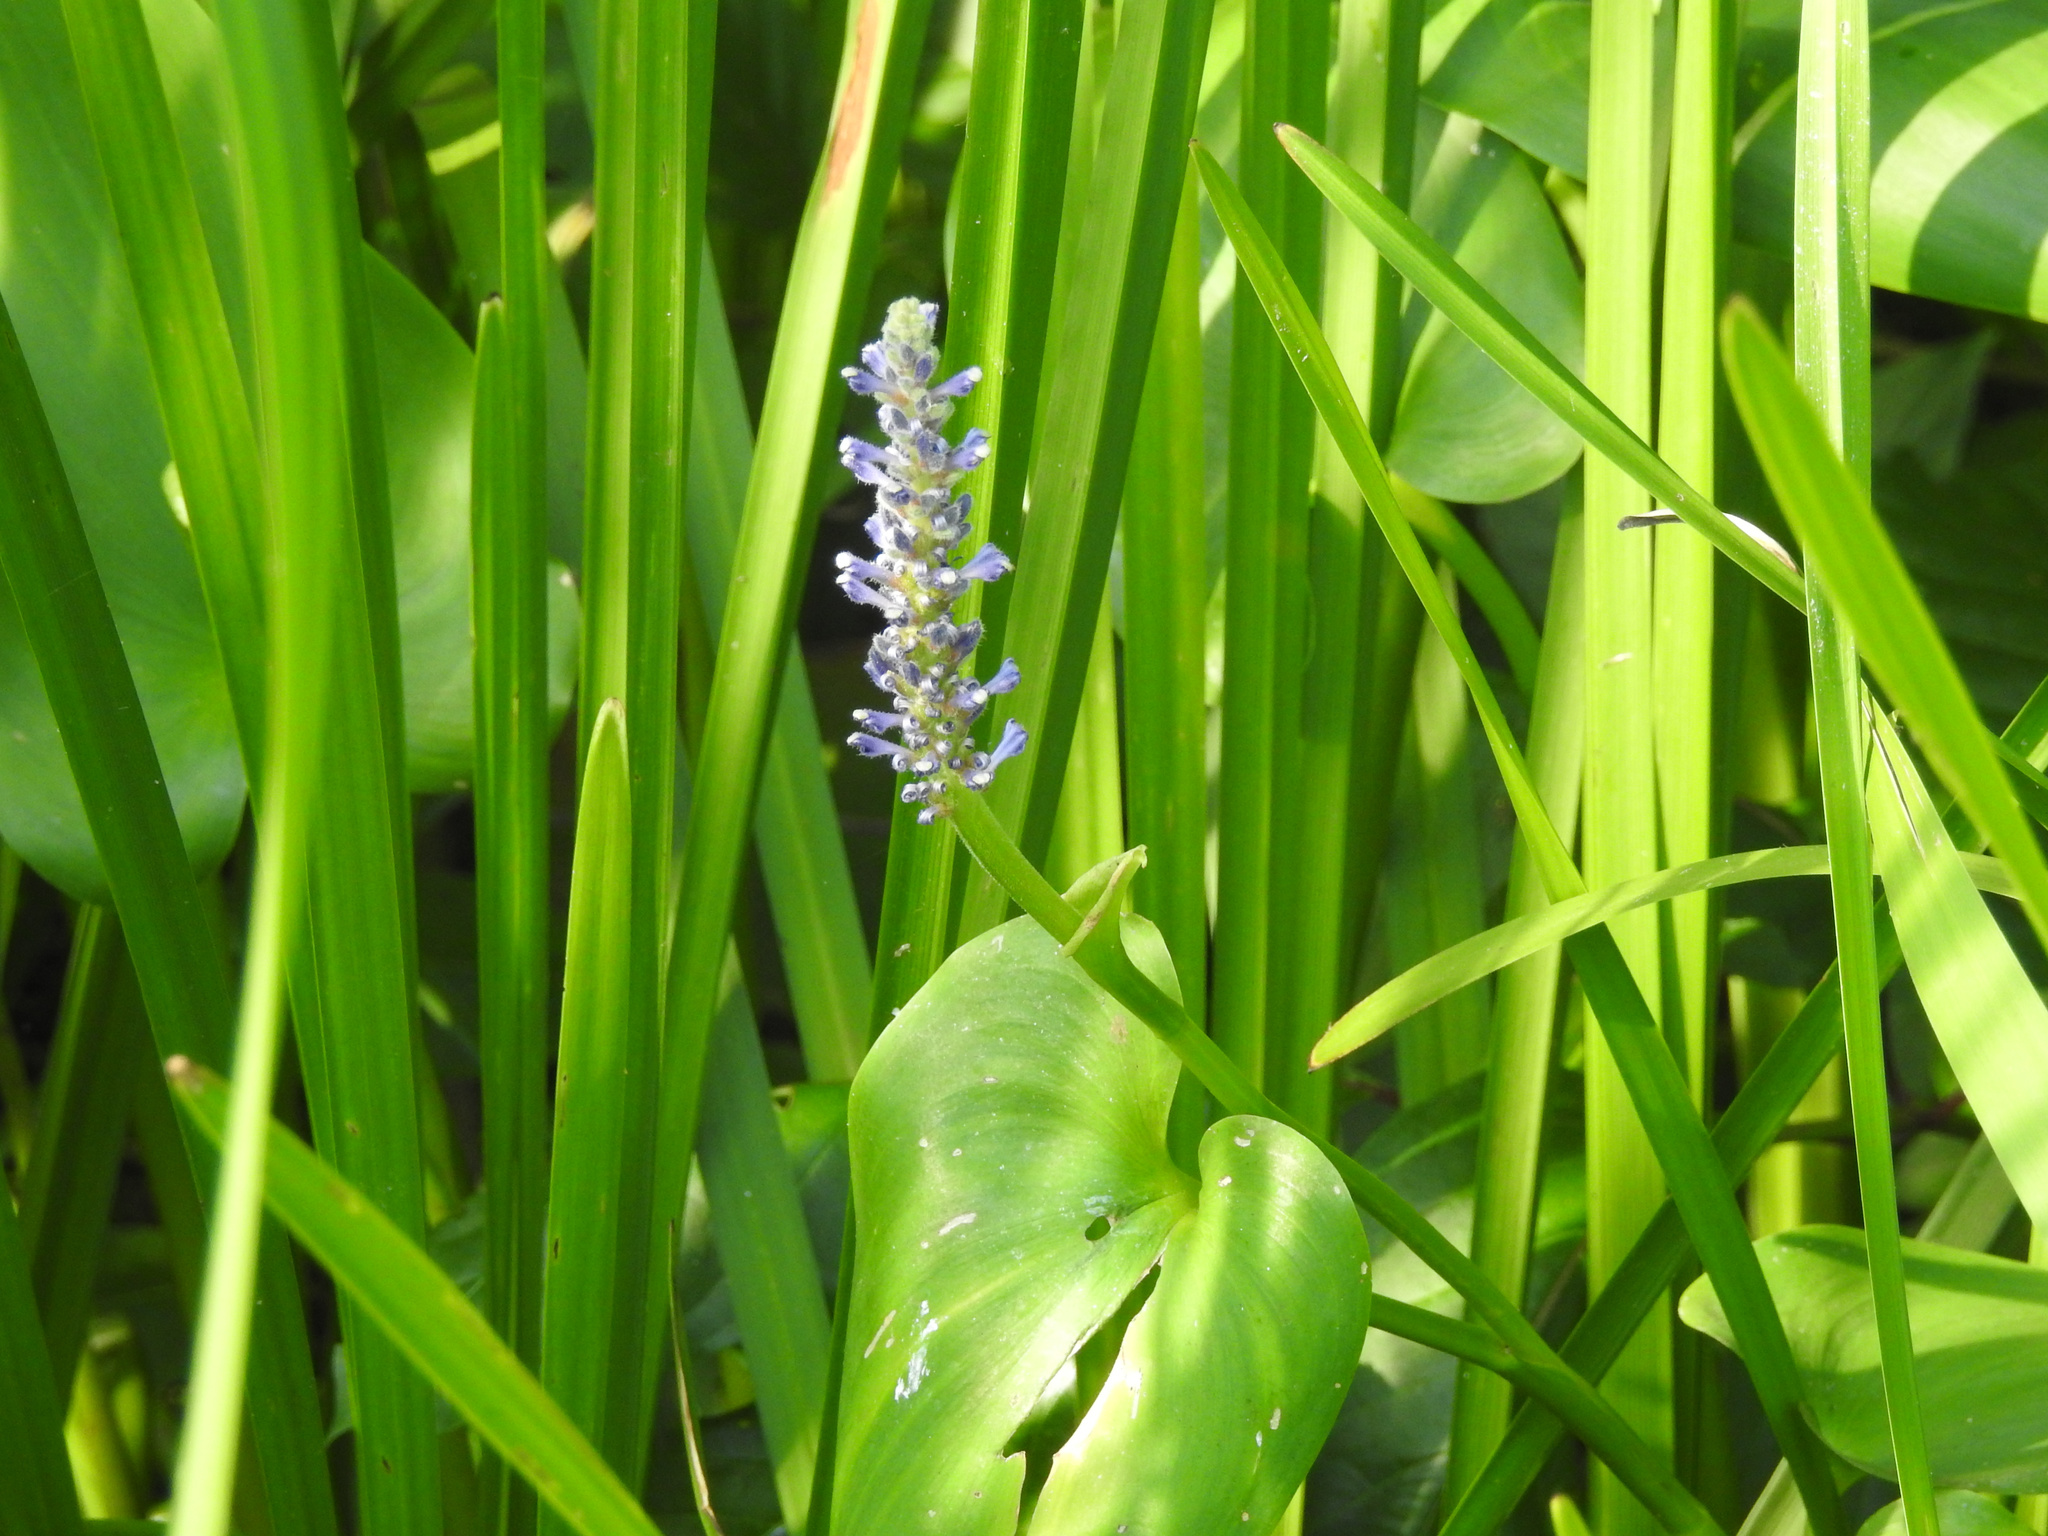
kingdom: Plantae
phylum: Tracheophyta
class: Liliopsida
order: Commelinales
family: Pontederiaceae
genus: Pontederia
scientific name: Pontederia cordata
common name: Pickerelweed
